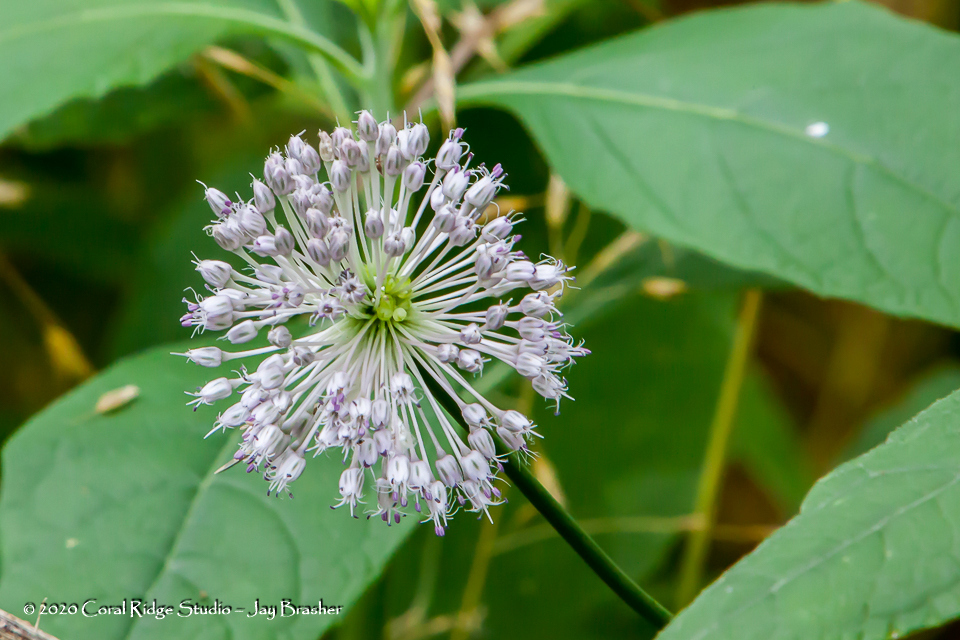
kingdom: Plantae
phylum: Tracheophyta
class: Liliopsida
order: Asparagales
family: Amaryllidaceae
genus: Allium
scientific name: Allium vineale
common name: Crow garlic
